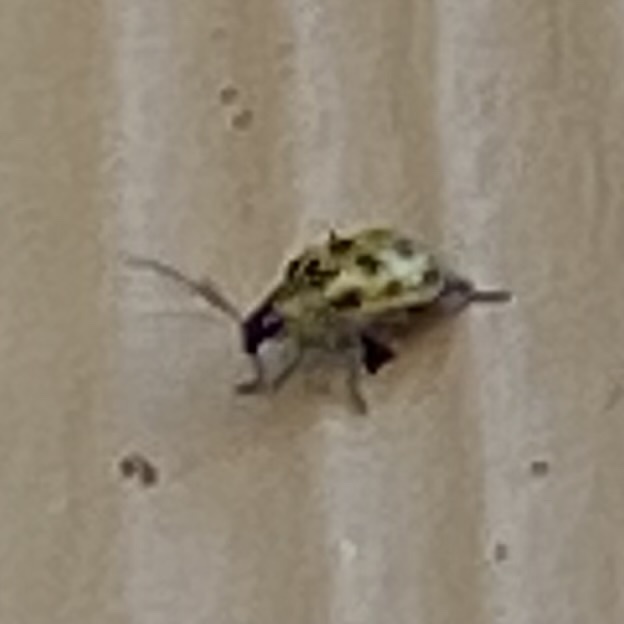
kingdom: Animalia
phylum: Arthropoda
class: Insecta
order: Coleoptera
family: Chrysomelidae
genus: Diabrotica
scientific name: Diabrotica undecimpunctata
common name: Spotted cucumber beetle
